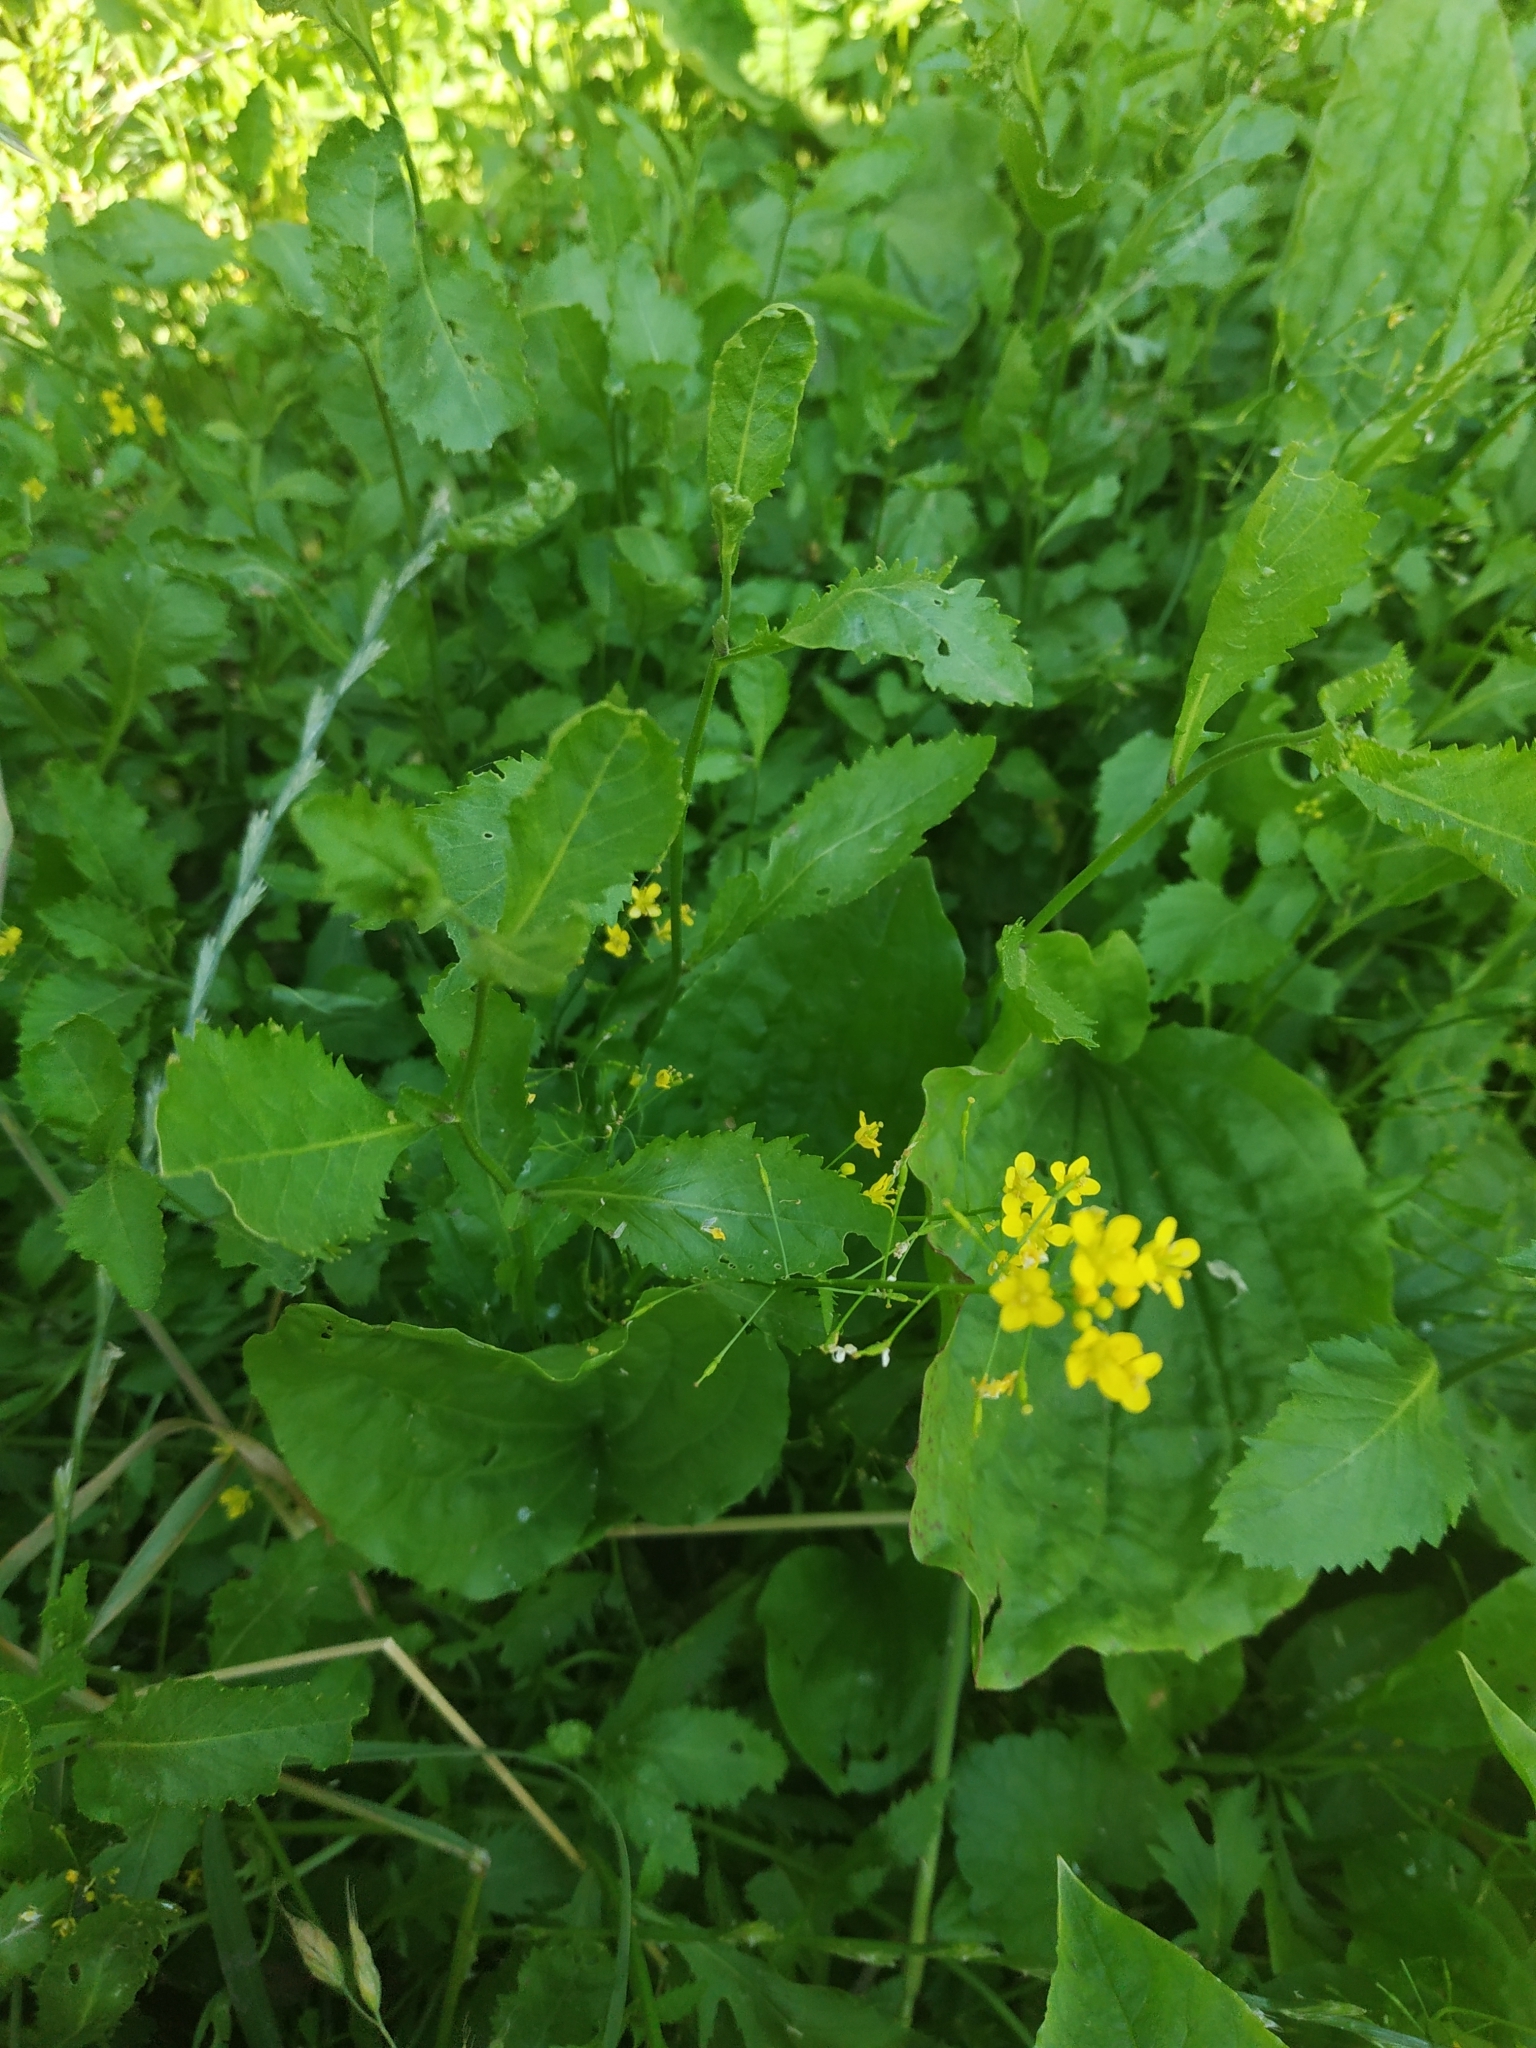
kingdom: Plantae
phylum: Tracheophyta
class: Magnoliopsida
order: Brassicales
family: Brassicaceae
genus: Rorippa
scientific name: Rorippa austriaca
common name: Austrian yellow-cress
